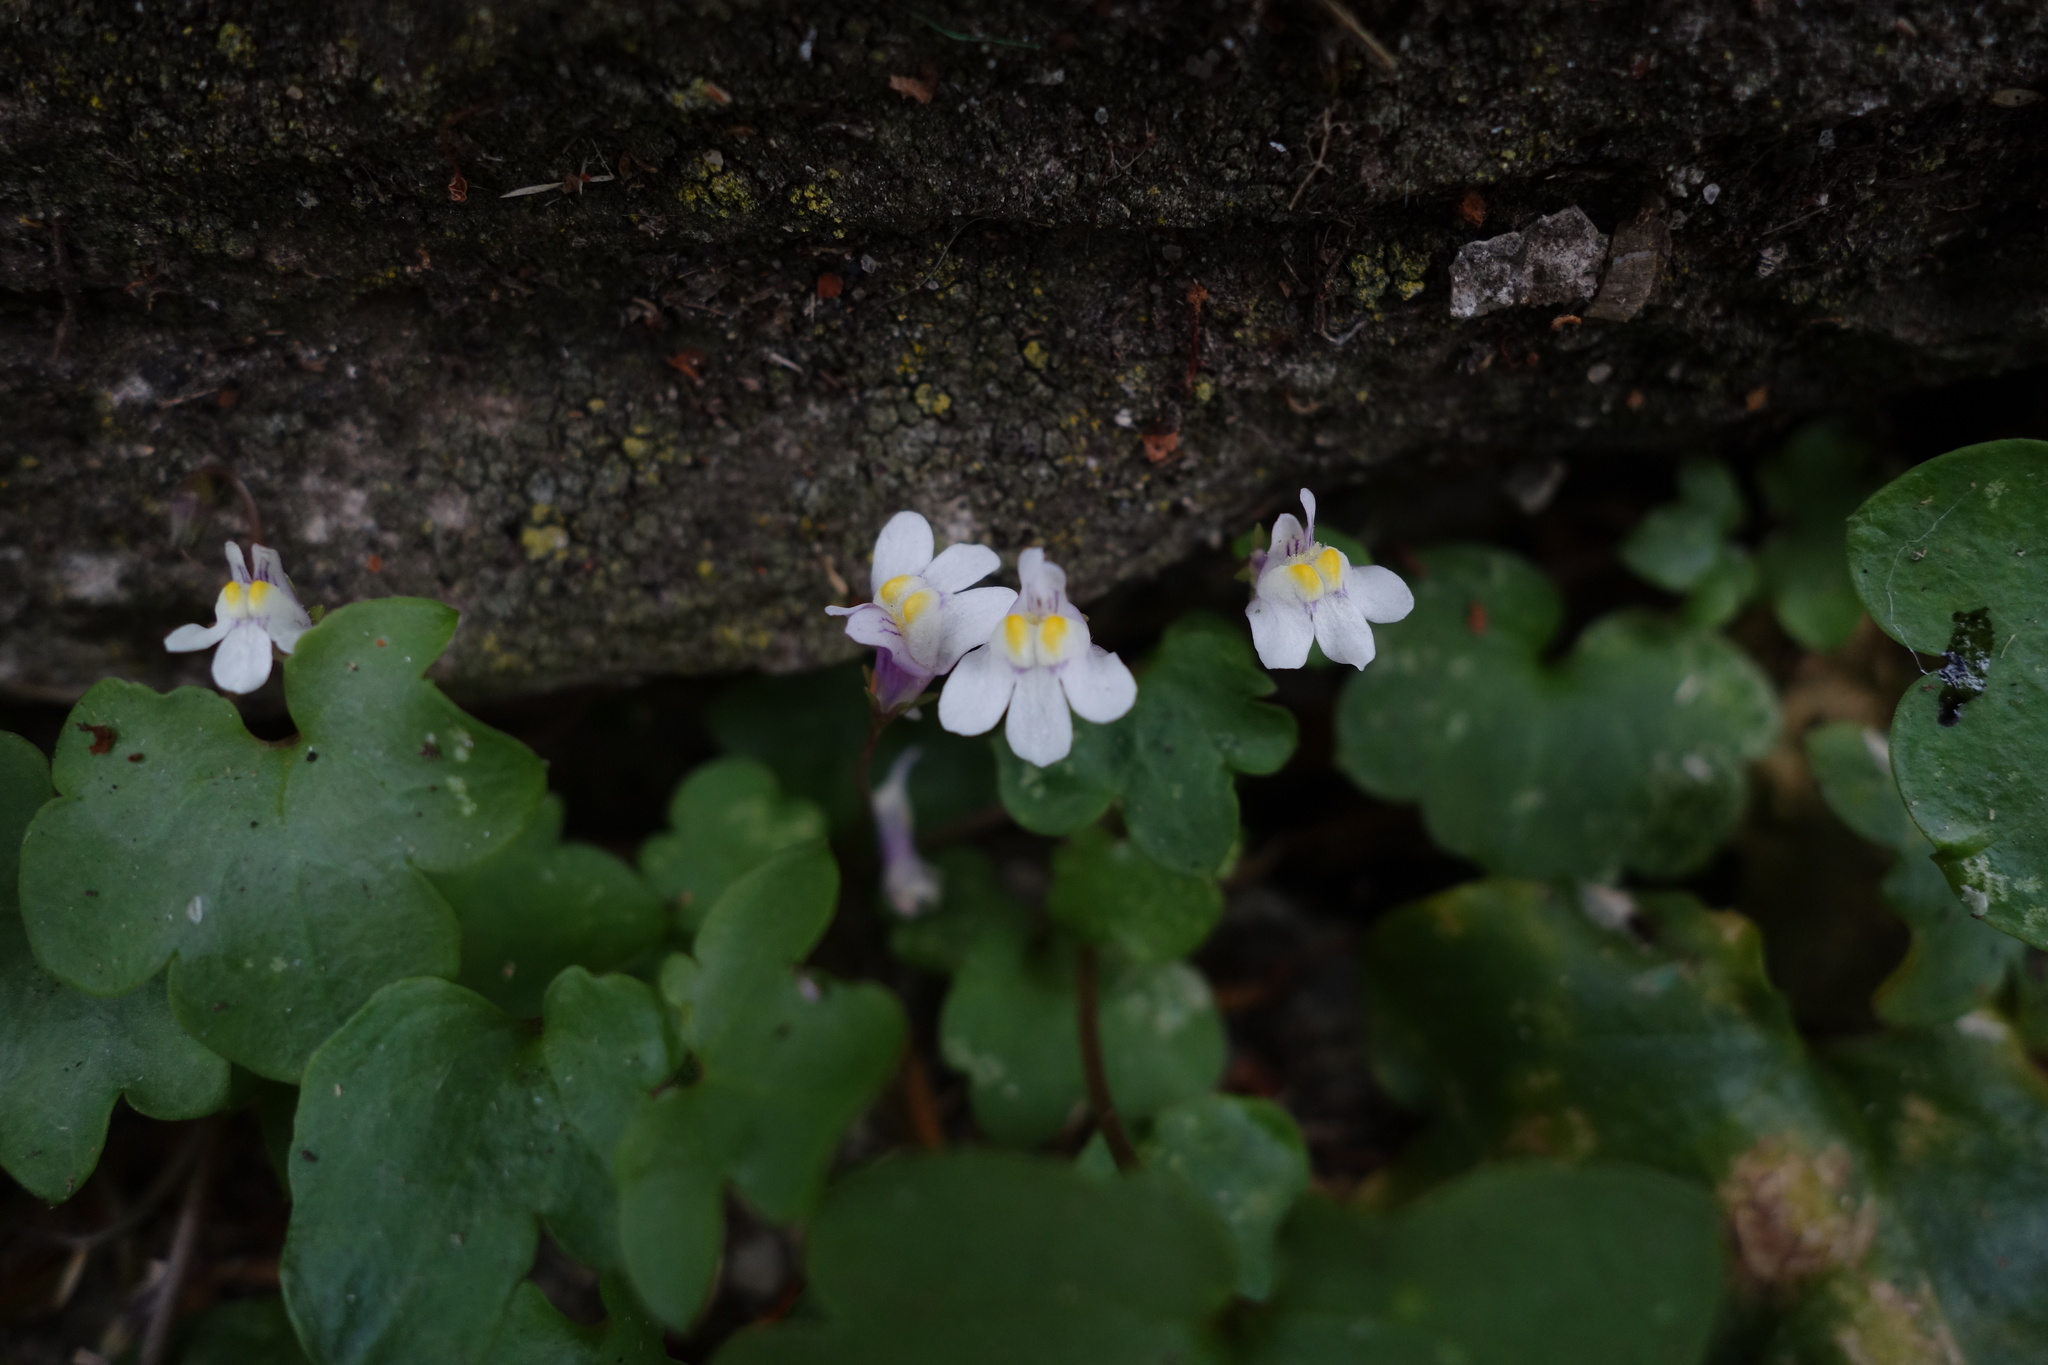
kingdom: Plantae
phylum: Tracheophyta
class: Magnoliopsida
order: Lamiales
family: Plantaginaceae
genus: Cymbalaria
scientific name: Cymbalaria muralis
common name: Ivy-leaved toadflax
